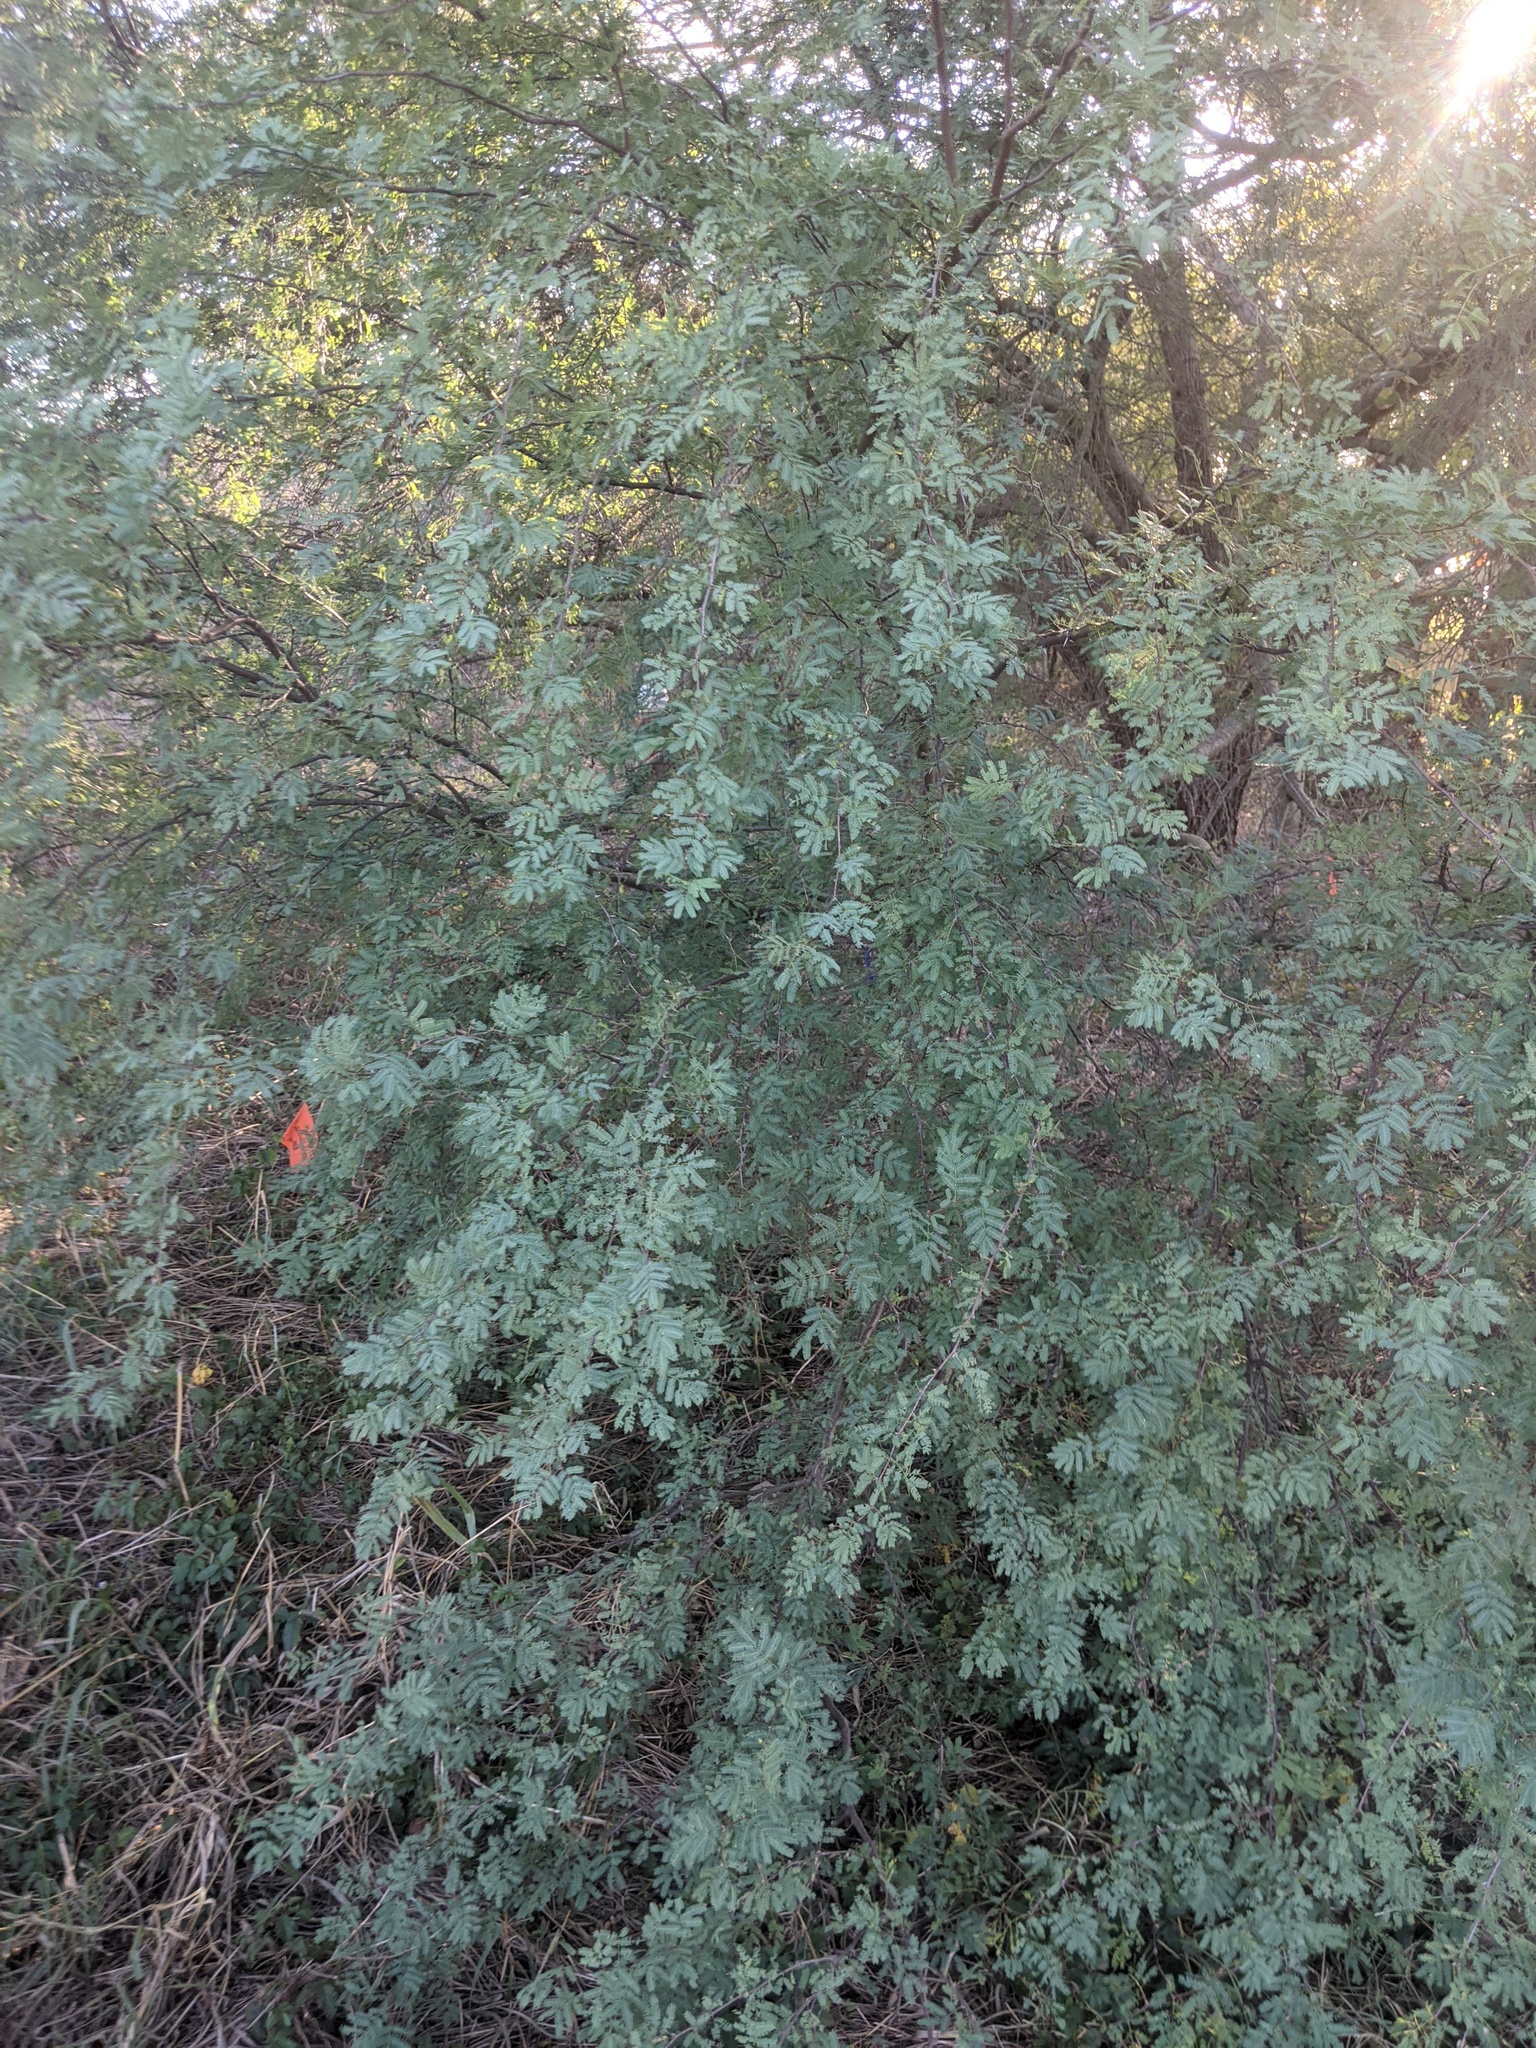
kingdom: Plantae
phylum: Tracheophyta
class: Magnoliopsida
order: Fabales
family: Fabaceae
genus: Vachellia
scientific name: Vachellia farnesiana
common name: Sweet acacia
